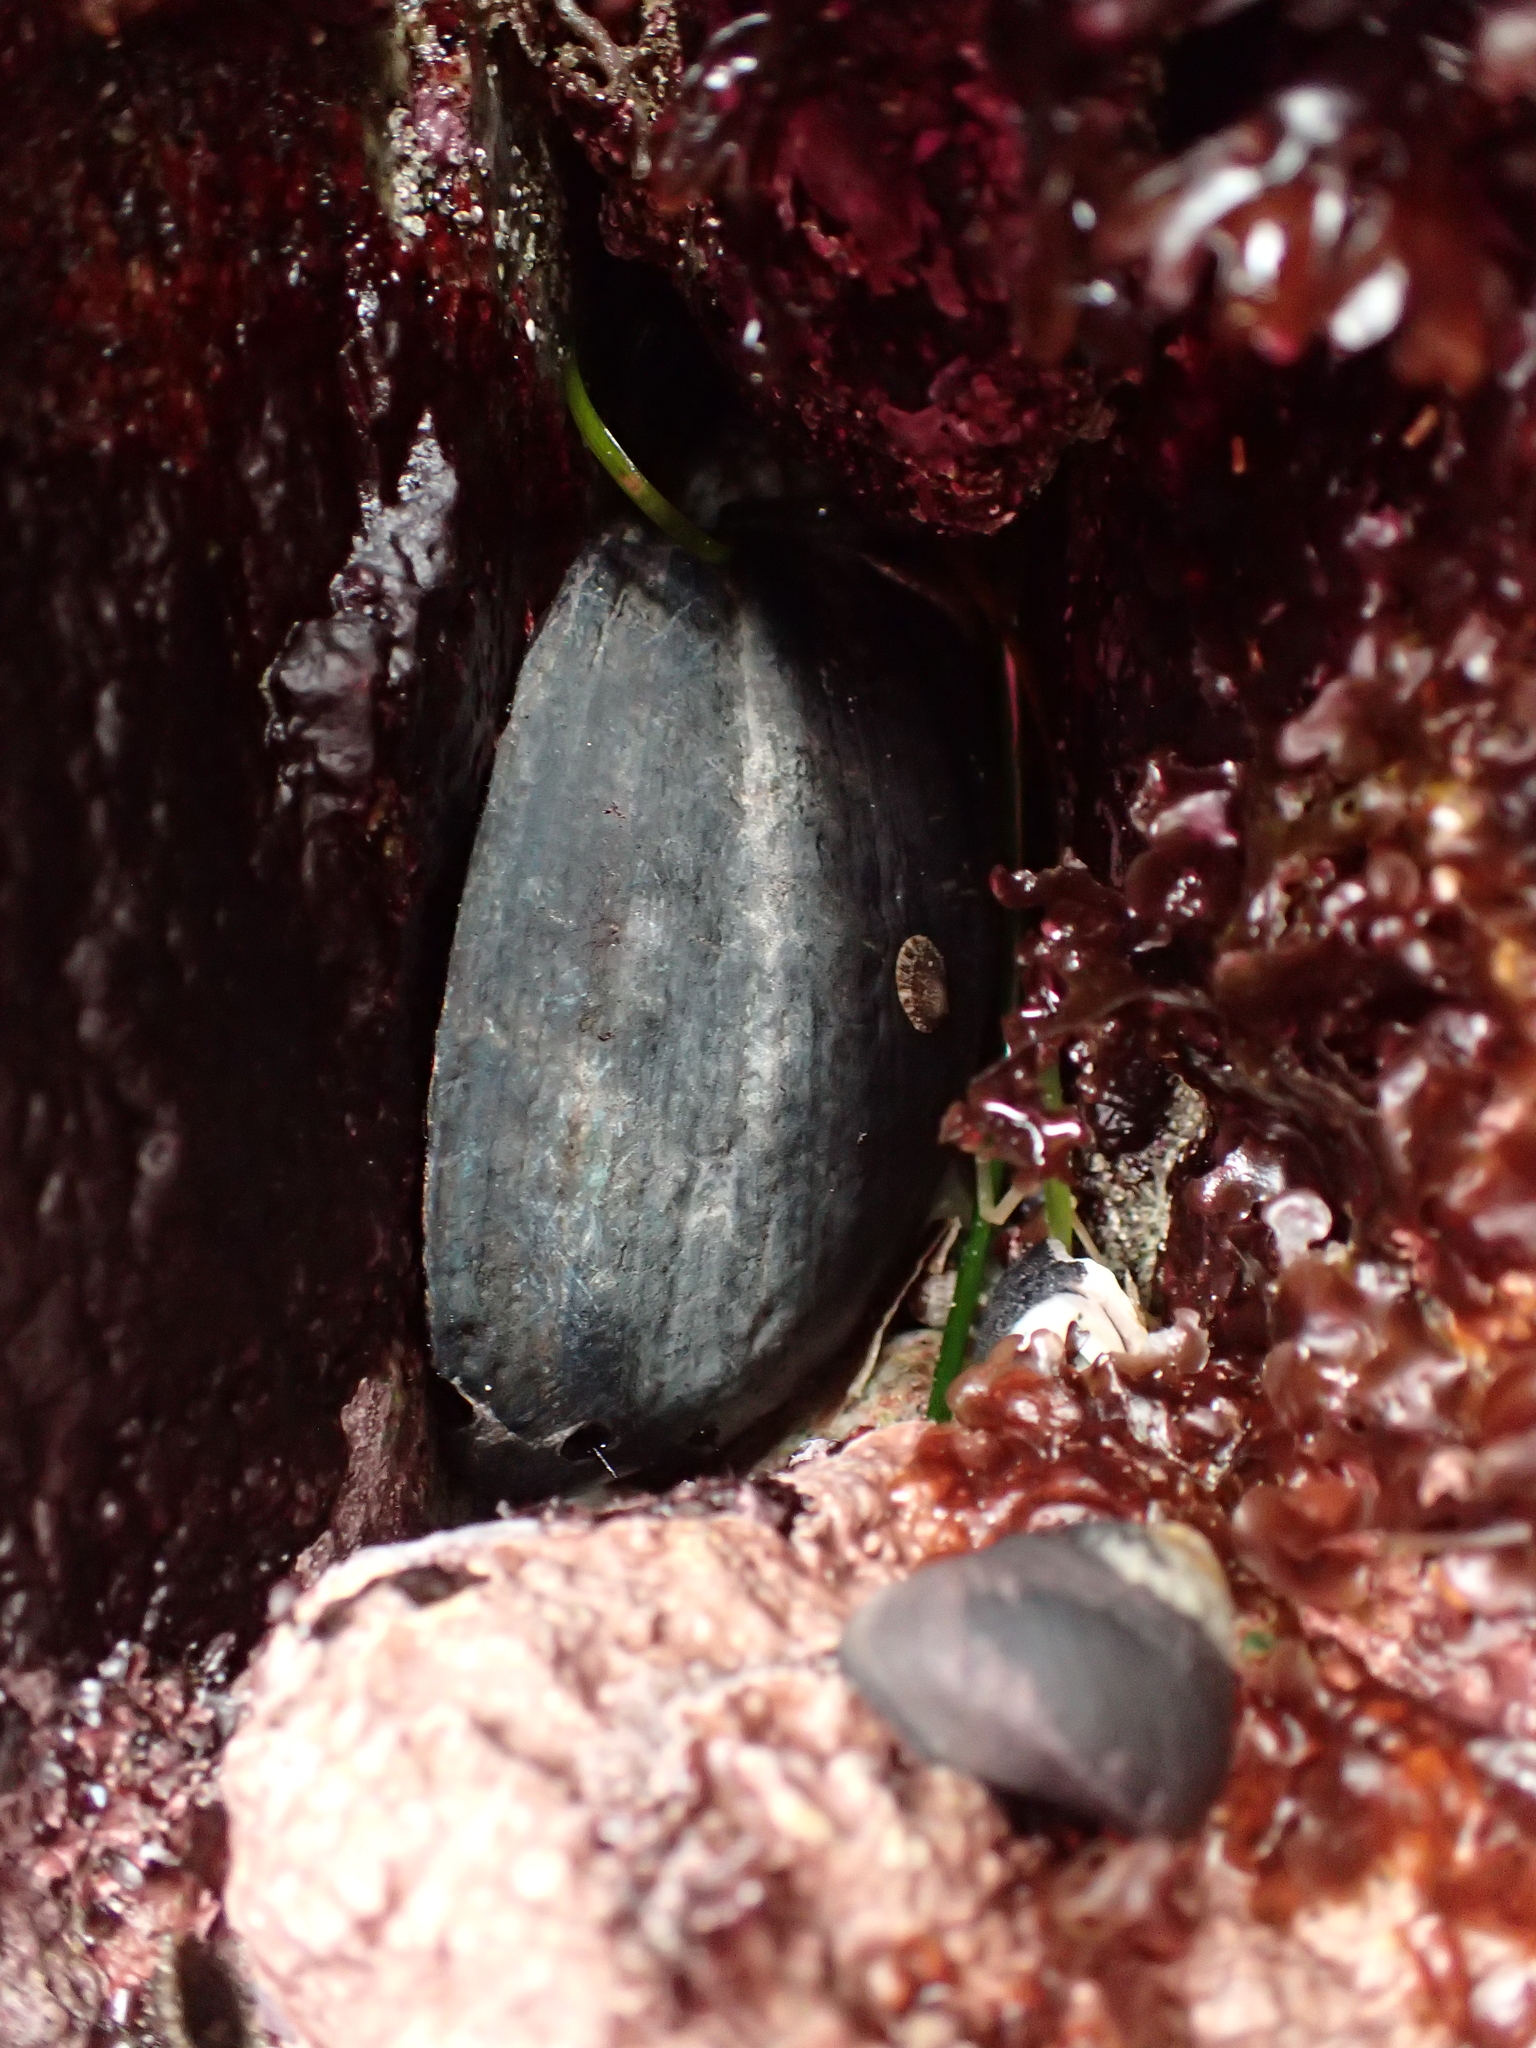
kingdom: Animalia
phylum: Mollusca
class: Gastropoda
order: Lepetellida
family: Haliotidae
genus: Haliotis
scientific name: Haliotis cracherodii
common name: Black abalone
